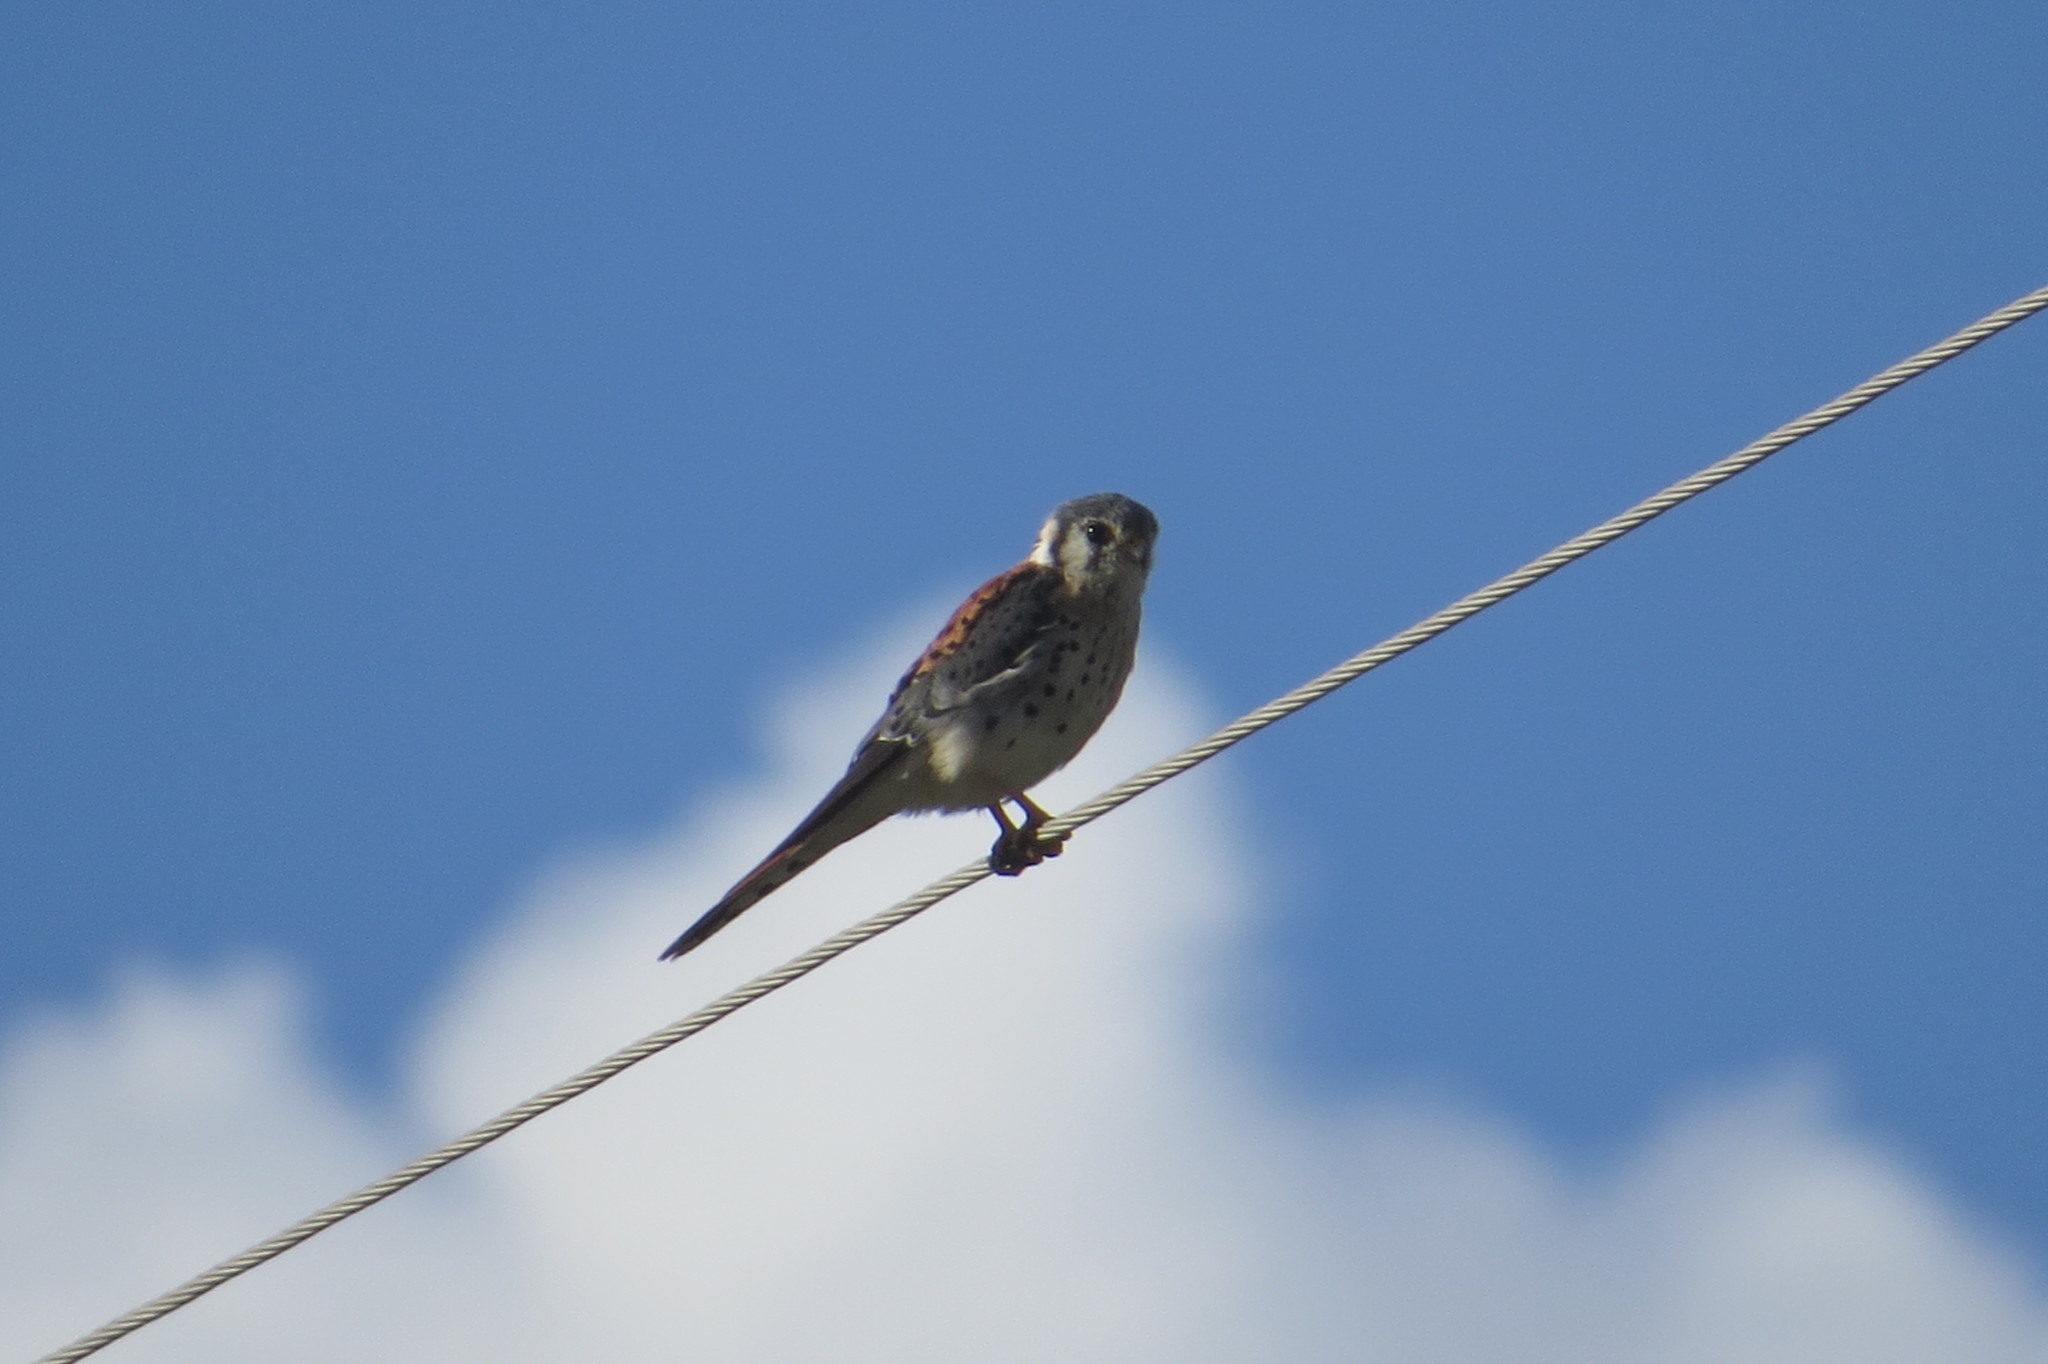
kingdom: Animalia
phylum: Chordata
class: Aves
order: Falconiformes
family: Falconidae
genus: Falco
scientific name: Falco sparverius
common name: American kestrel
